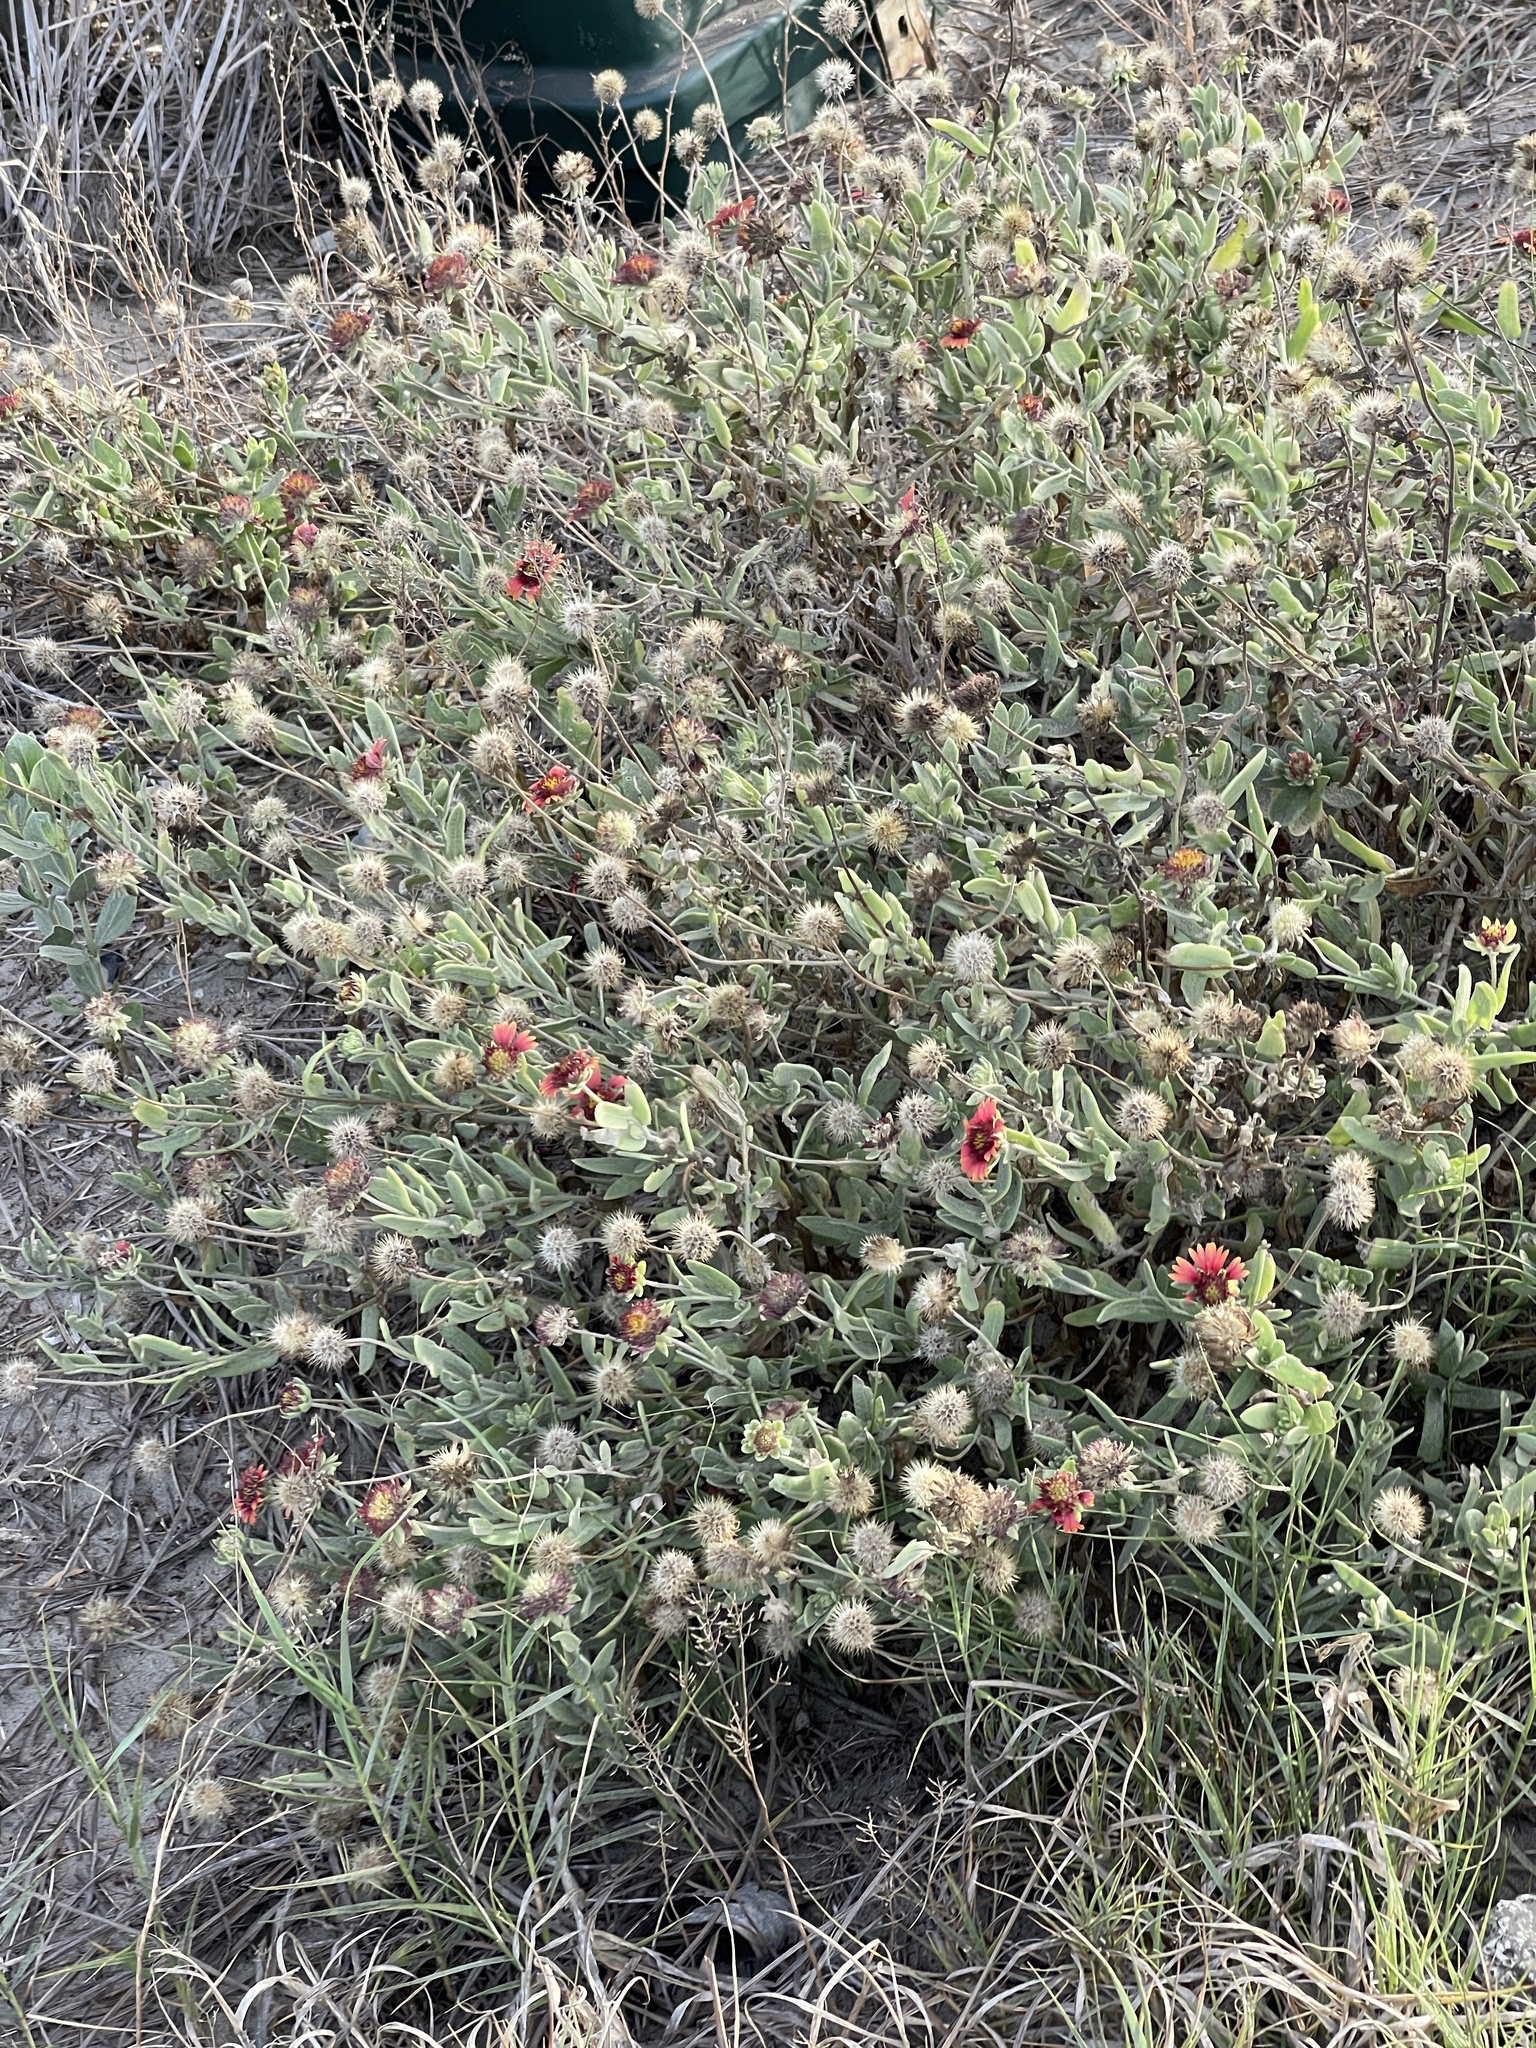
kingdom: Plantae
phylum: Tracheophyta
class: Magnoliopsida
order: Asterales
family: Asteraceae
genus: Gaillardia
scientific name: Gaillardia pulchella
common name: Firewheel
